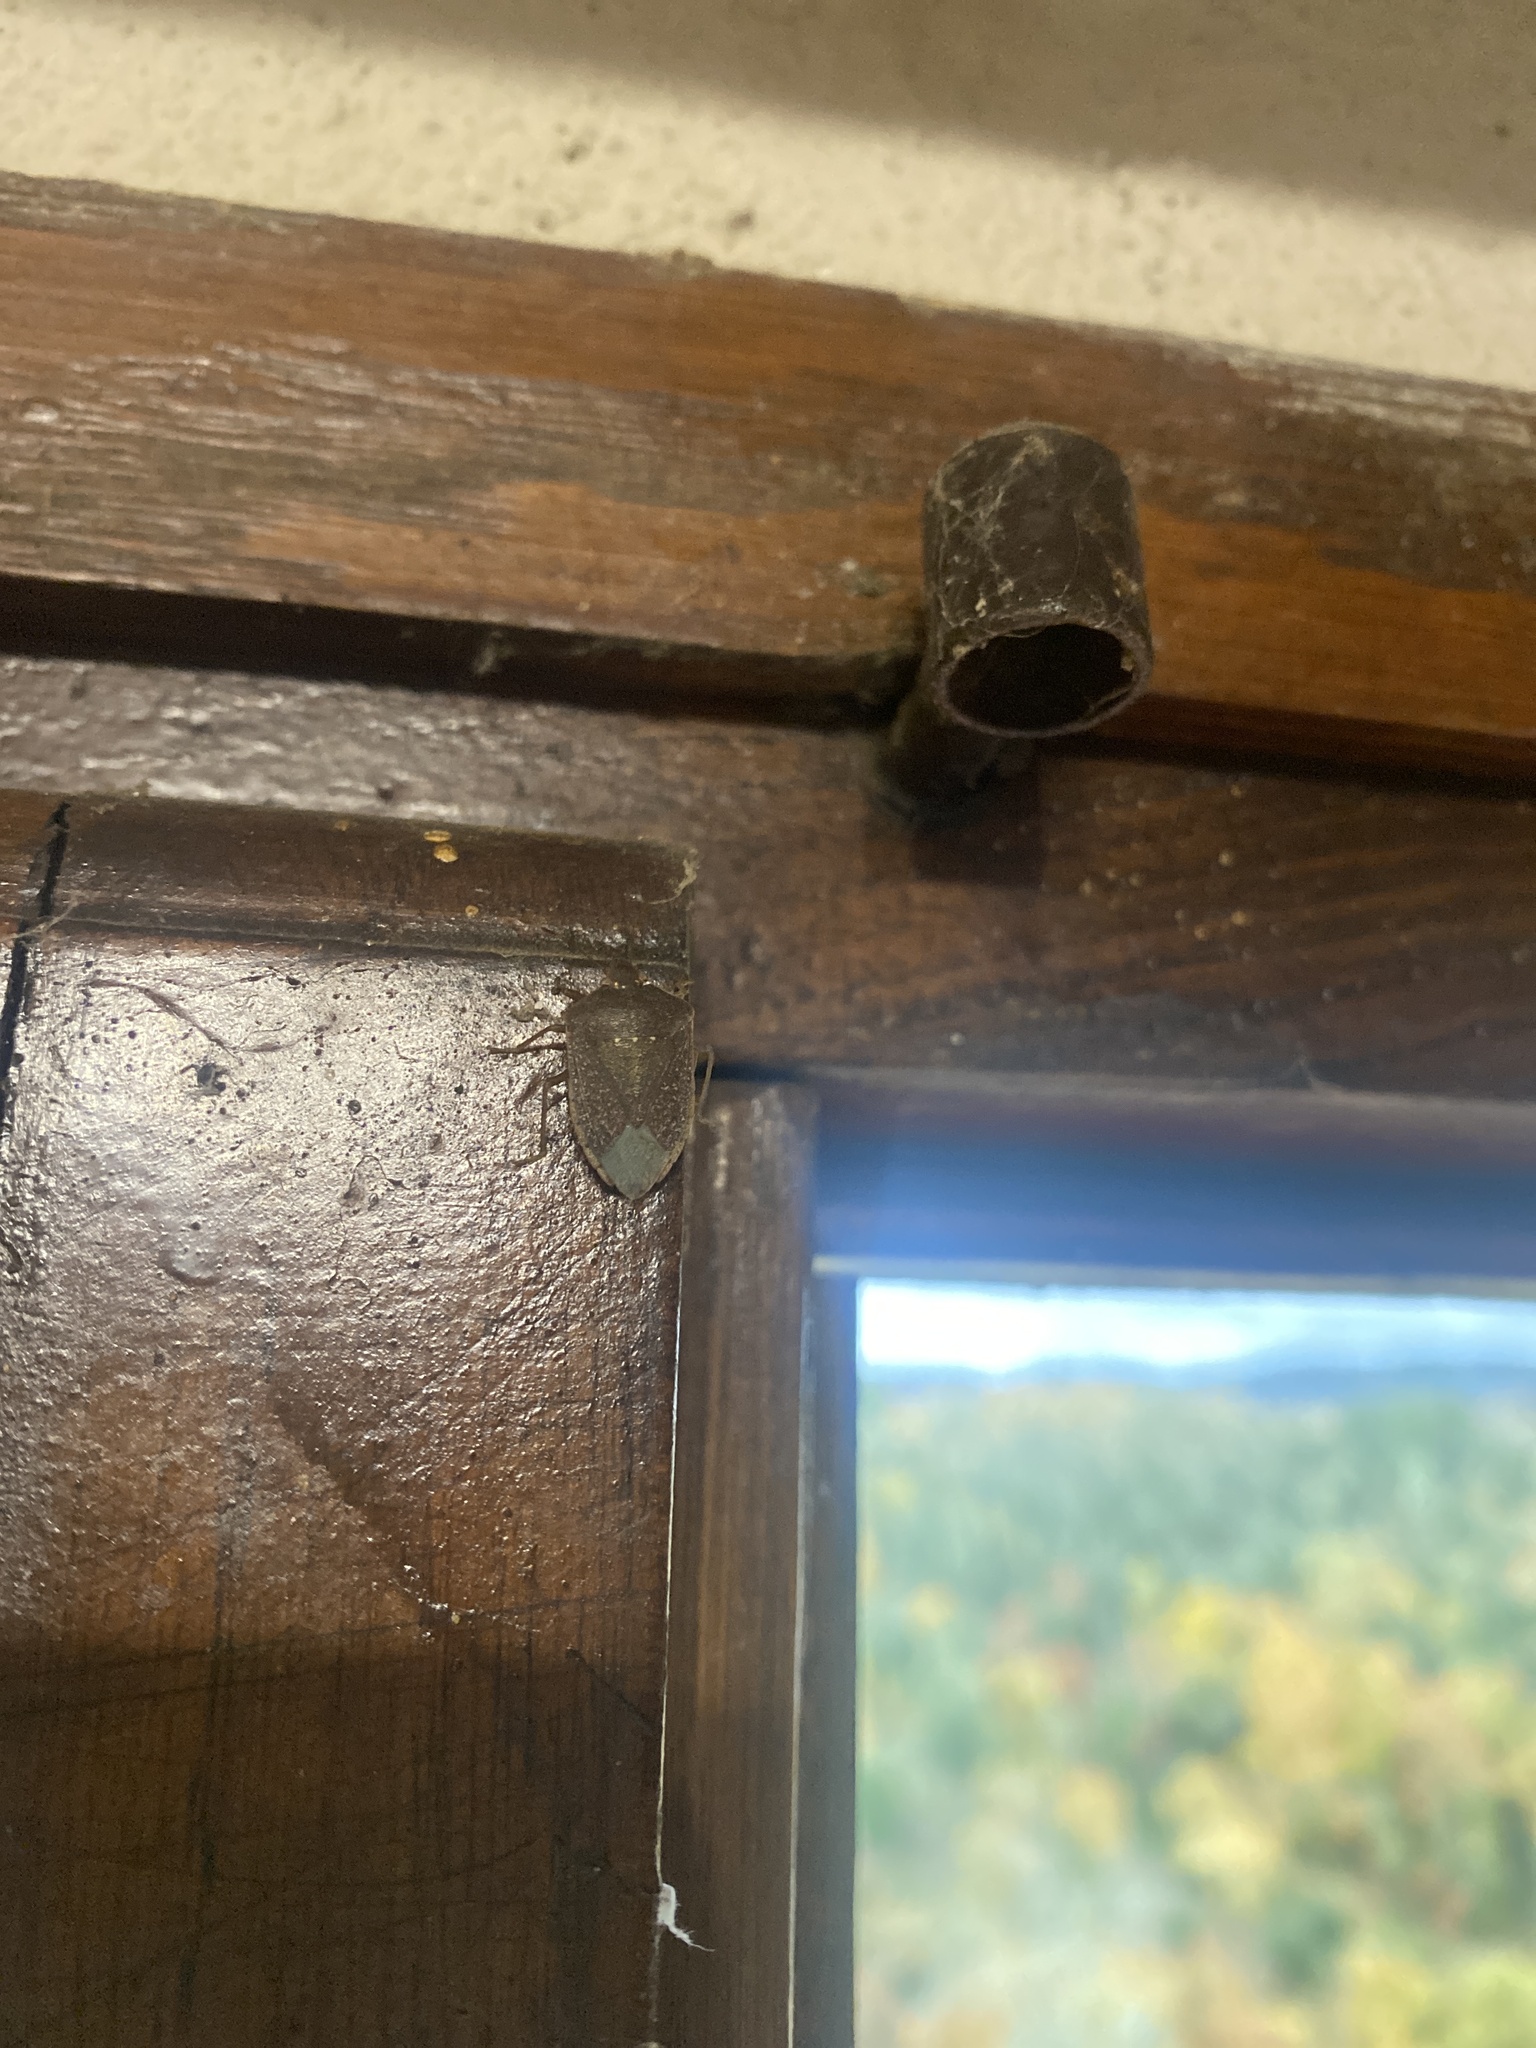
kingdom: Animalia
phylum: Arthropoda
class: Insecta
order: Hemiptera
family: Pentatomidae
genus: Nezara
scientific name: Nezara viridula
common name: Southern green stink bug
